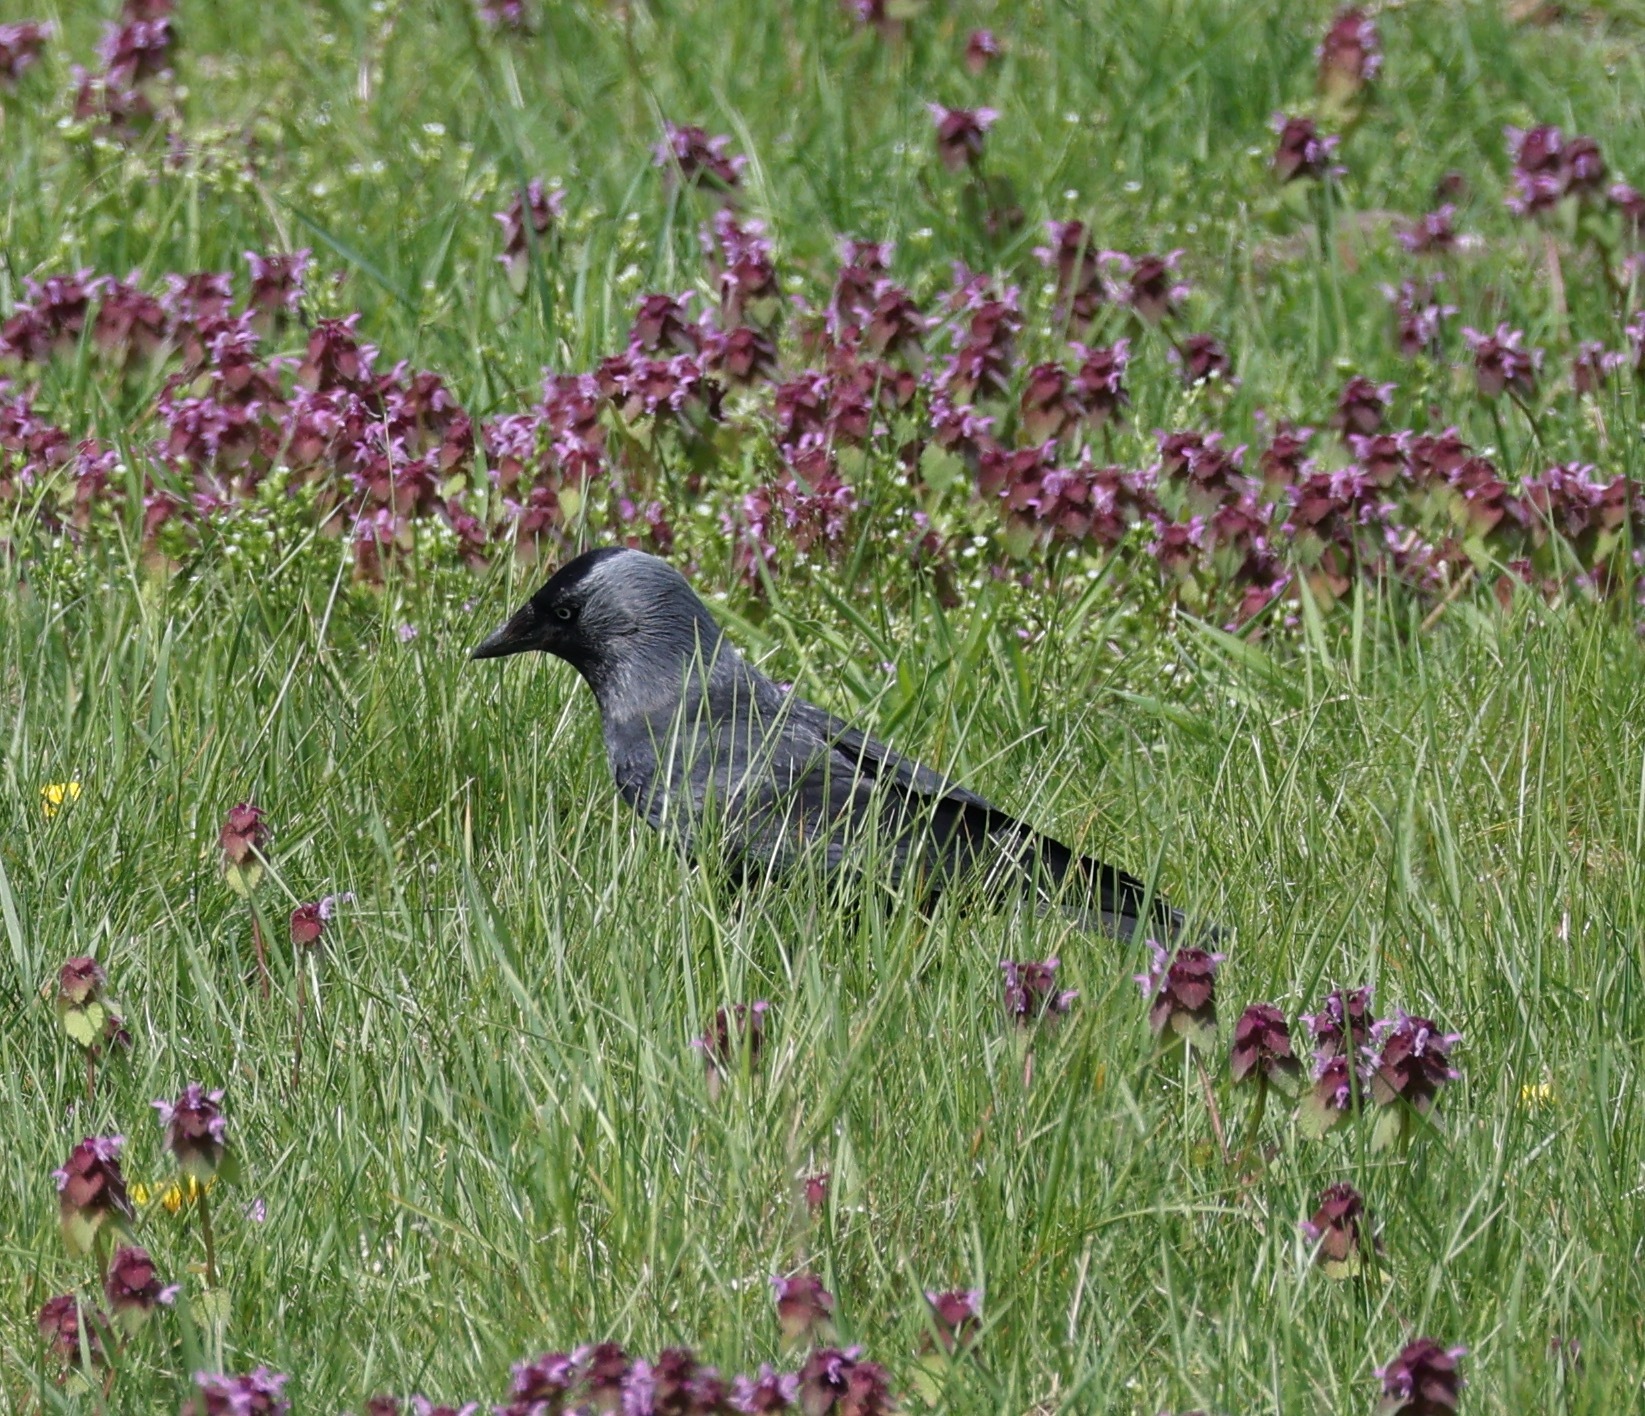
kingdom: Animalia
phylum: Chordata
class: Aves
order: Passeriformes
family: Corvidae
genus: Coloeus
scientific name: Coloeus monedula
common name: Western jackdaw
